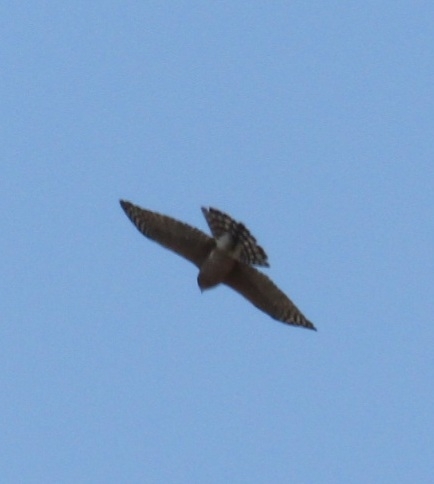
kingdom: Animalia
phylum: Chordata
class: Aves
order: Accipitriformes
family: Accipitridae
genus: Accipiter
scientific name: Accipiter cooperii
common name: Cooper's hawk
